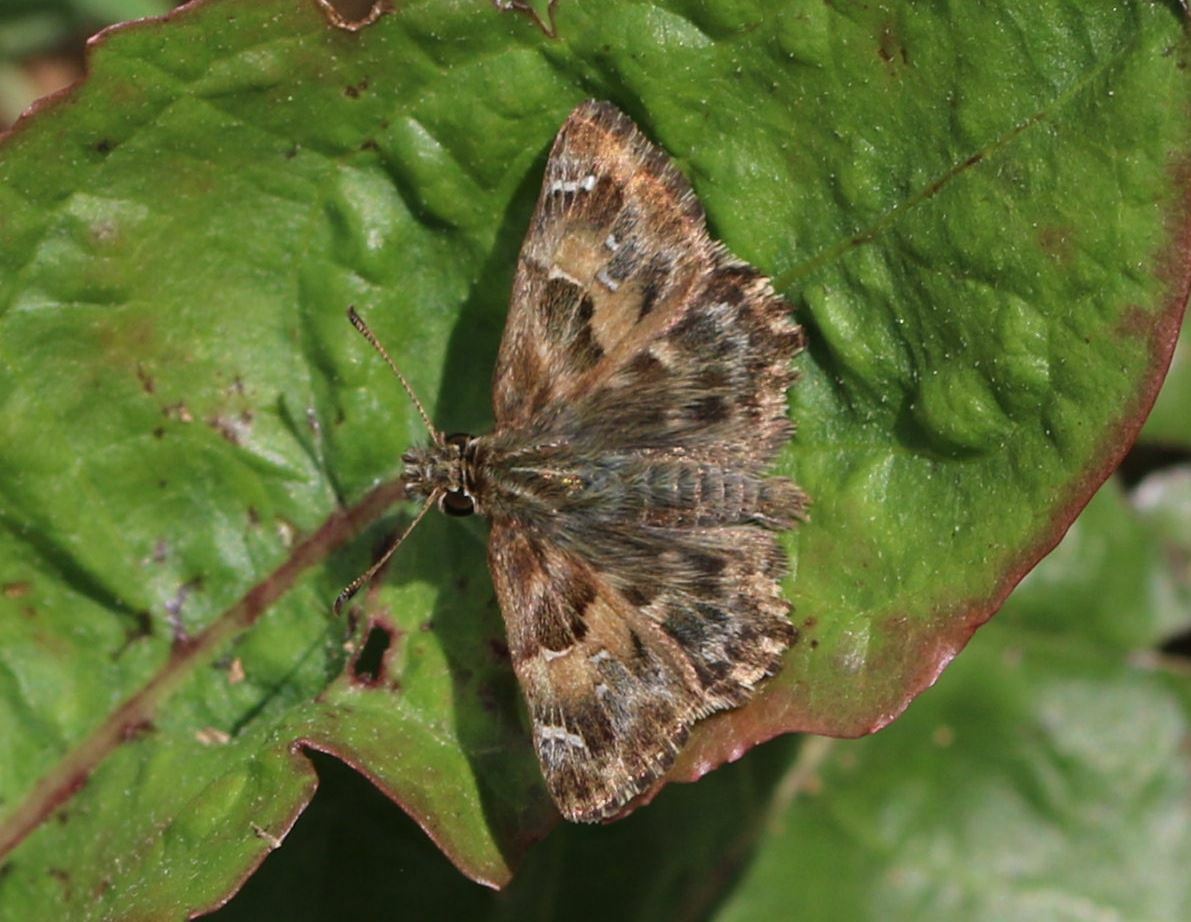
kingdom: Animalia
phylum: Arthropoda
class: Insecta
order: Lepidoptera
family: Hesperiidae
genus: Carcharodus
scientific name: Carcharodus alceae
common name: Mallow skipper
